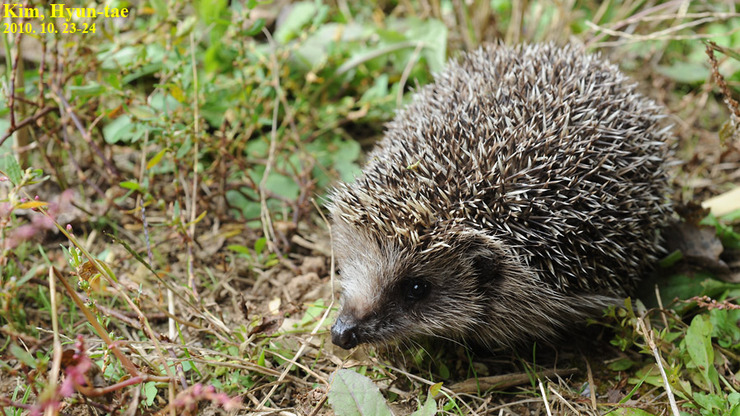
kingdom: Animalia
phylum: Chordata
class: Mammalia
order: Erinaceomorpha
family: Erinaceidae
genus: Erinaceus
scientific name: Erinaceus amurensis
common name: Amur hedgehog
